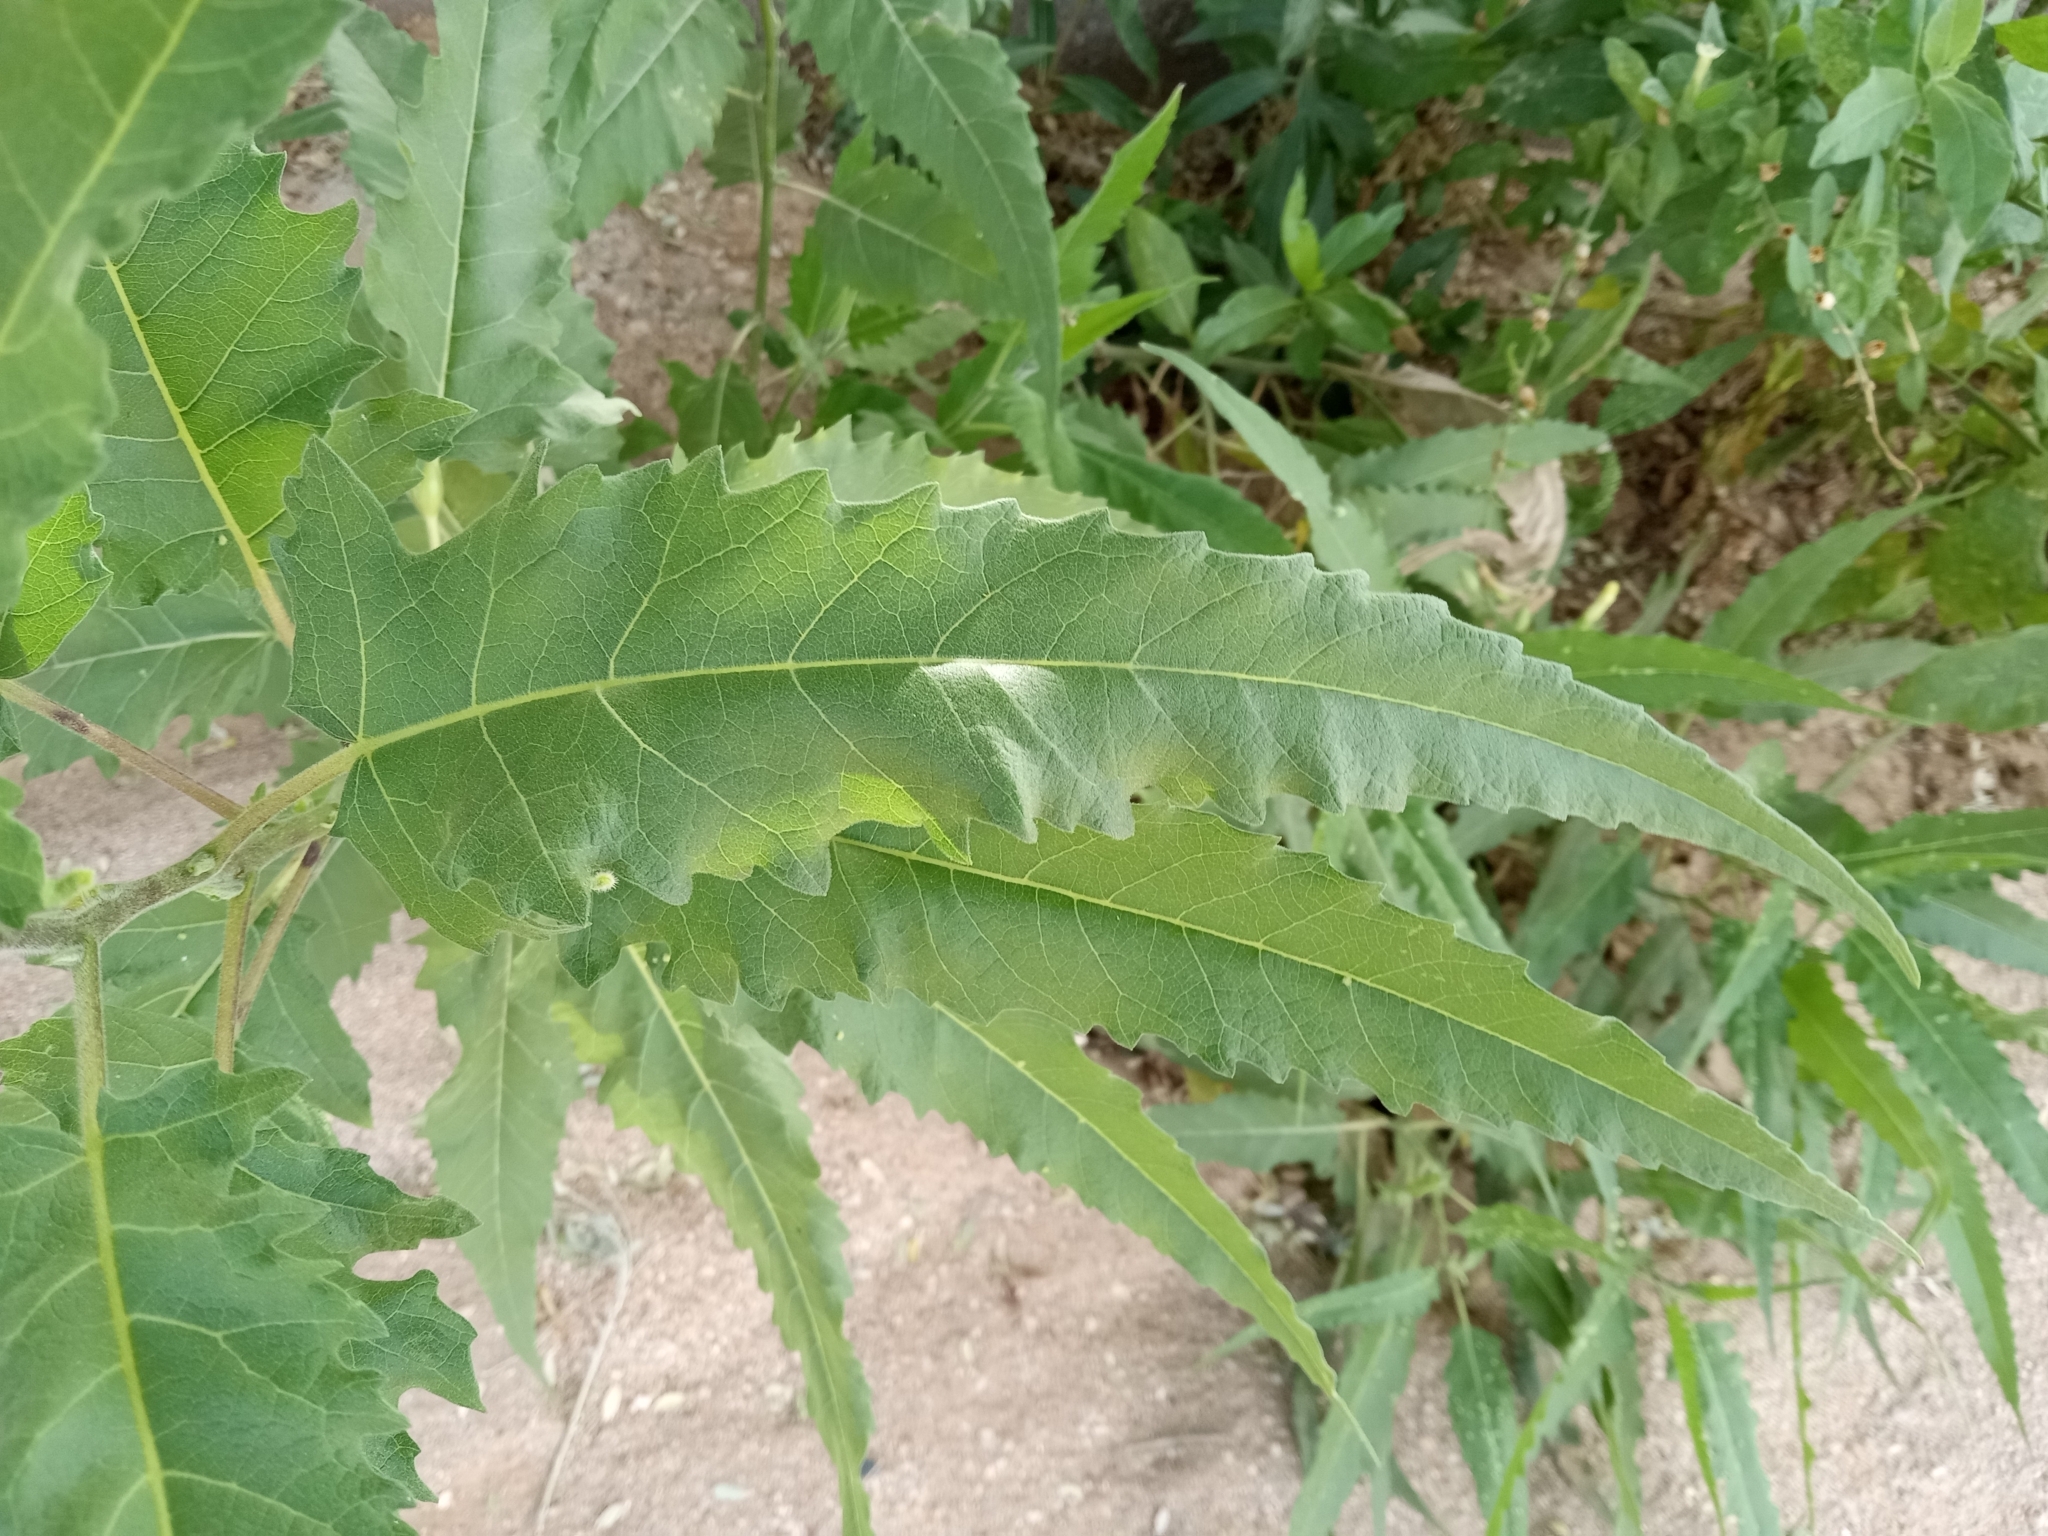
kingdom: Plantae
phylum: Tracheophyta
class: Magnoliopsida
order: Asterales
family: Asteraceae
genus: Ambrosia
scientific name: Ambrosia ambrosioides
